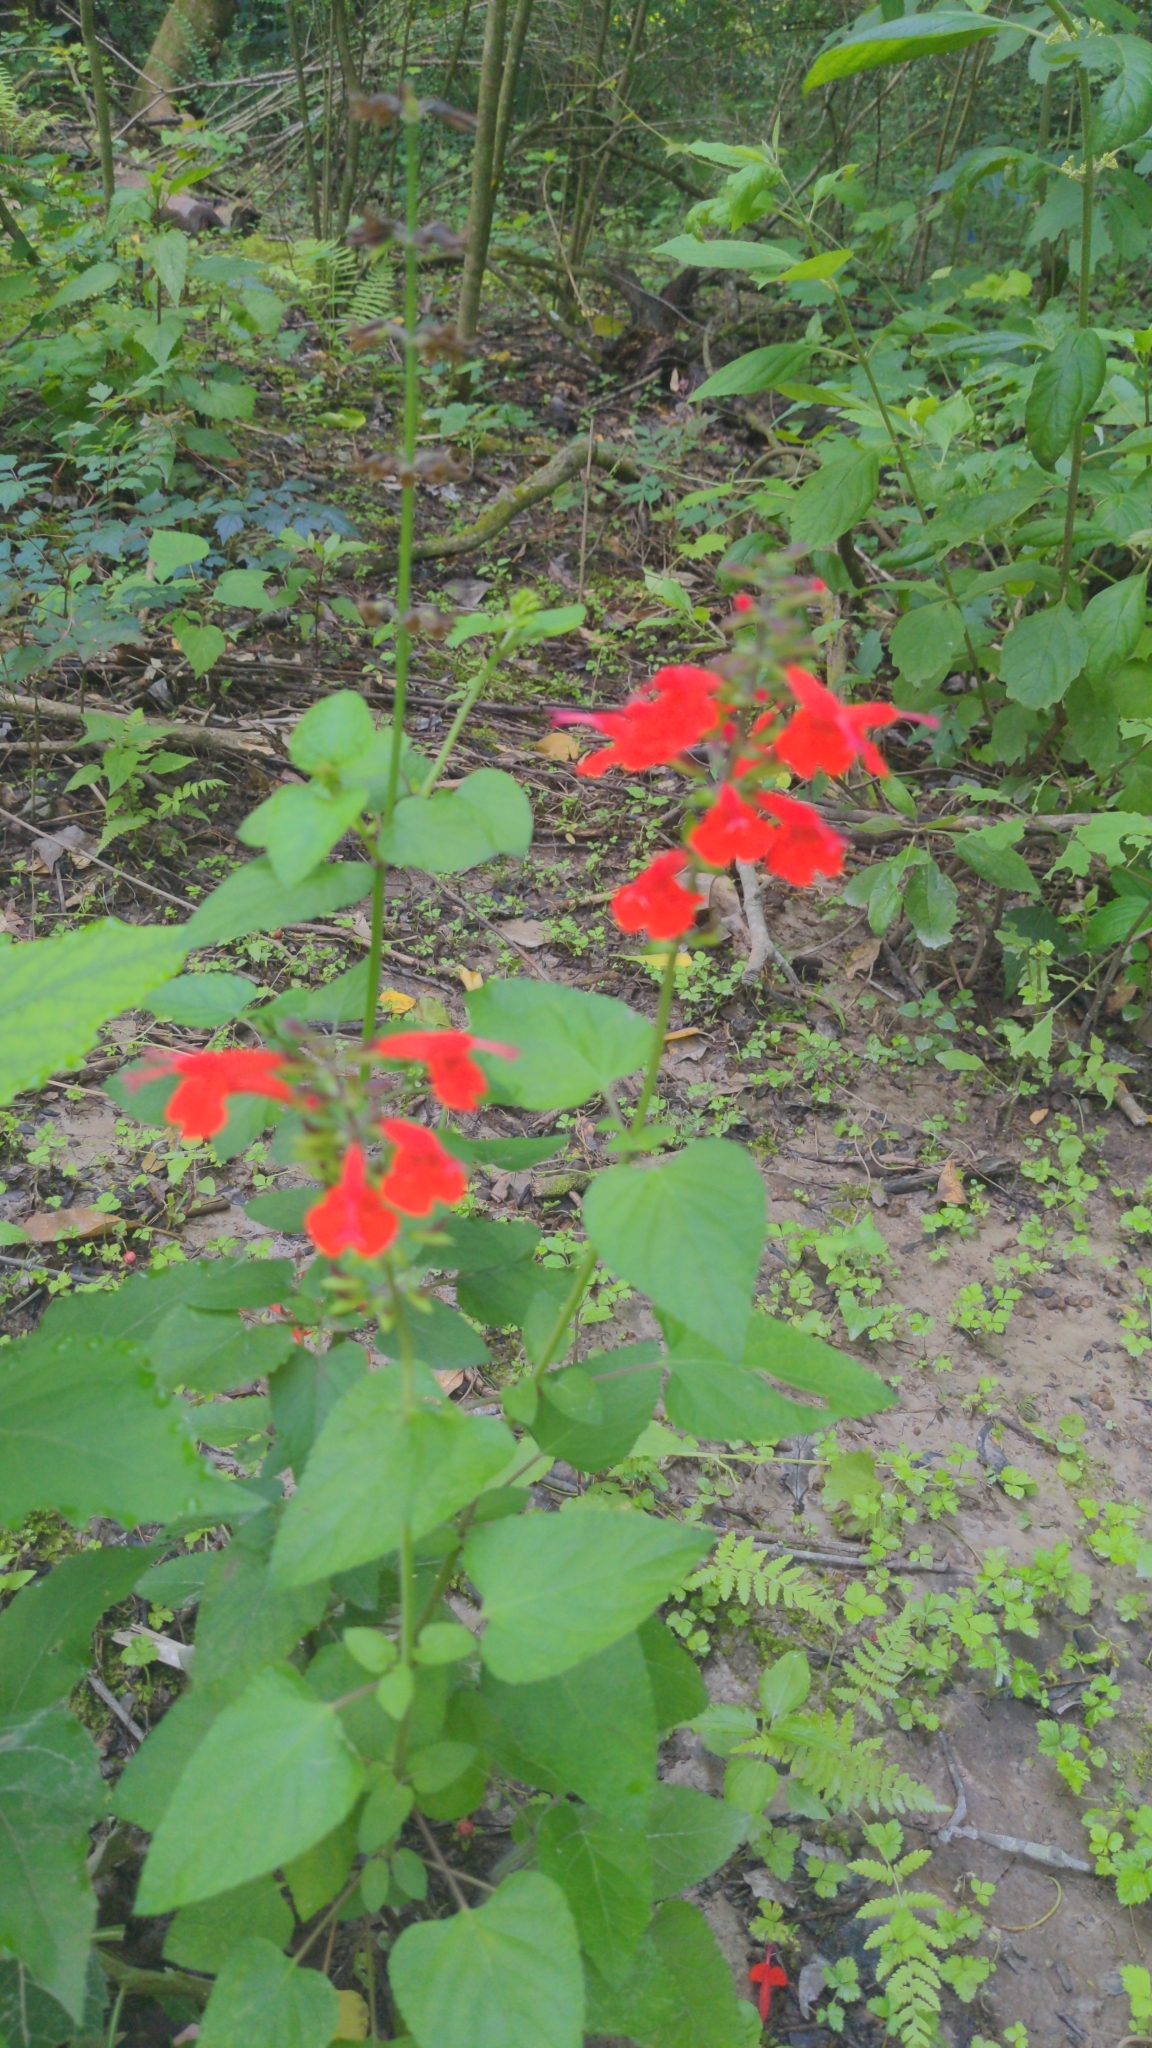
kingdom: Plantae
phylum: Tracheophyta
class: Magnoliopsida
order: Lamiales
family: Lamiaceae
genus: Salvia
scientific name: Salvia coccinea
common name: Blood sage
